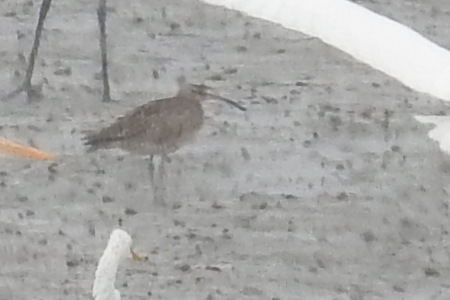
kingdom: Animalia
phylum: Chordata
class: Aves
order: Charadriiformes
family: Scolopacidae
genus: Numenius
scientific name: Numenius phaeopus
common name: Whimbrel
